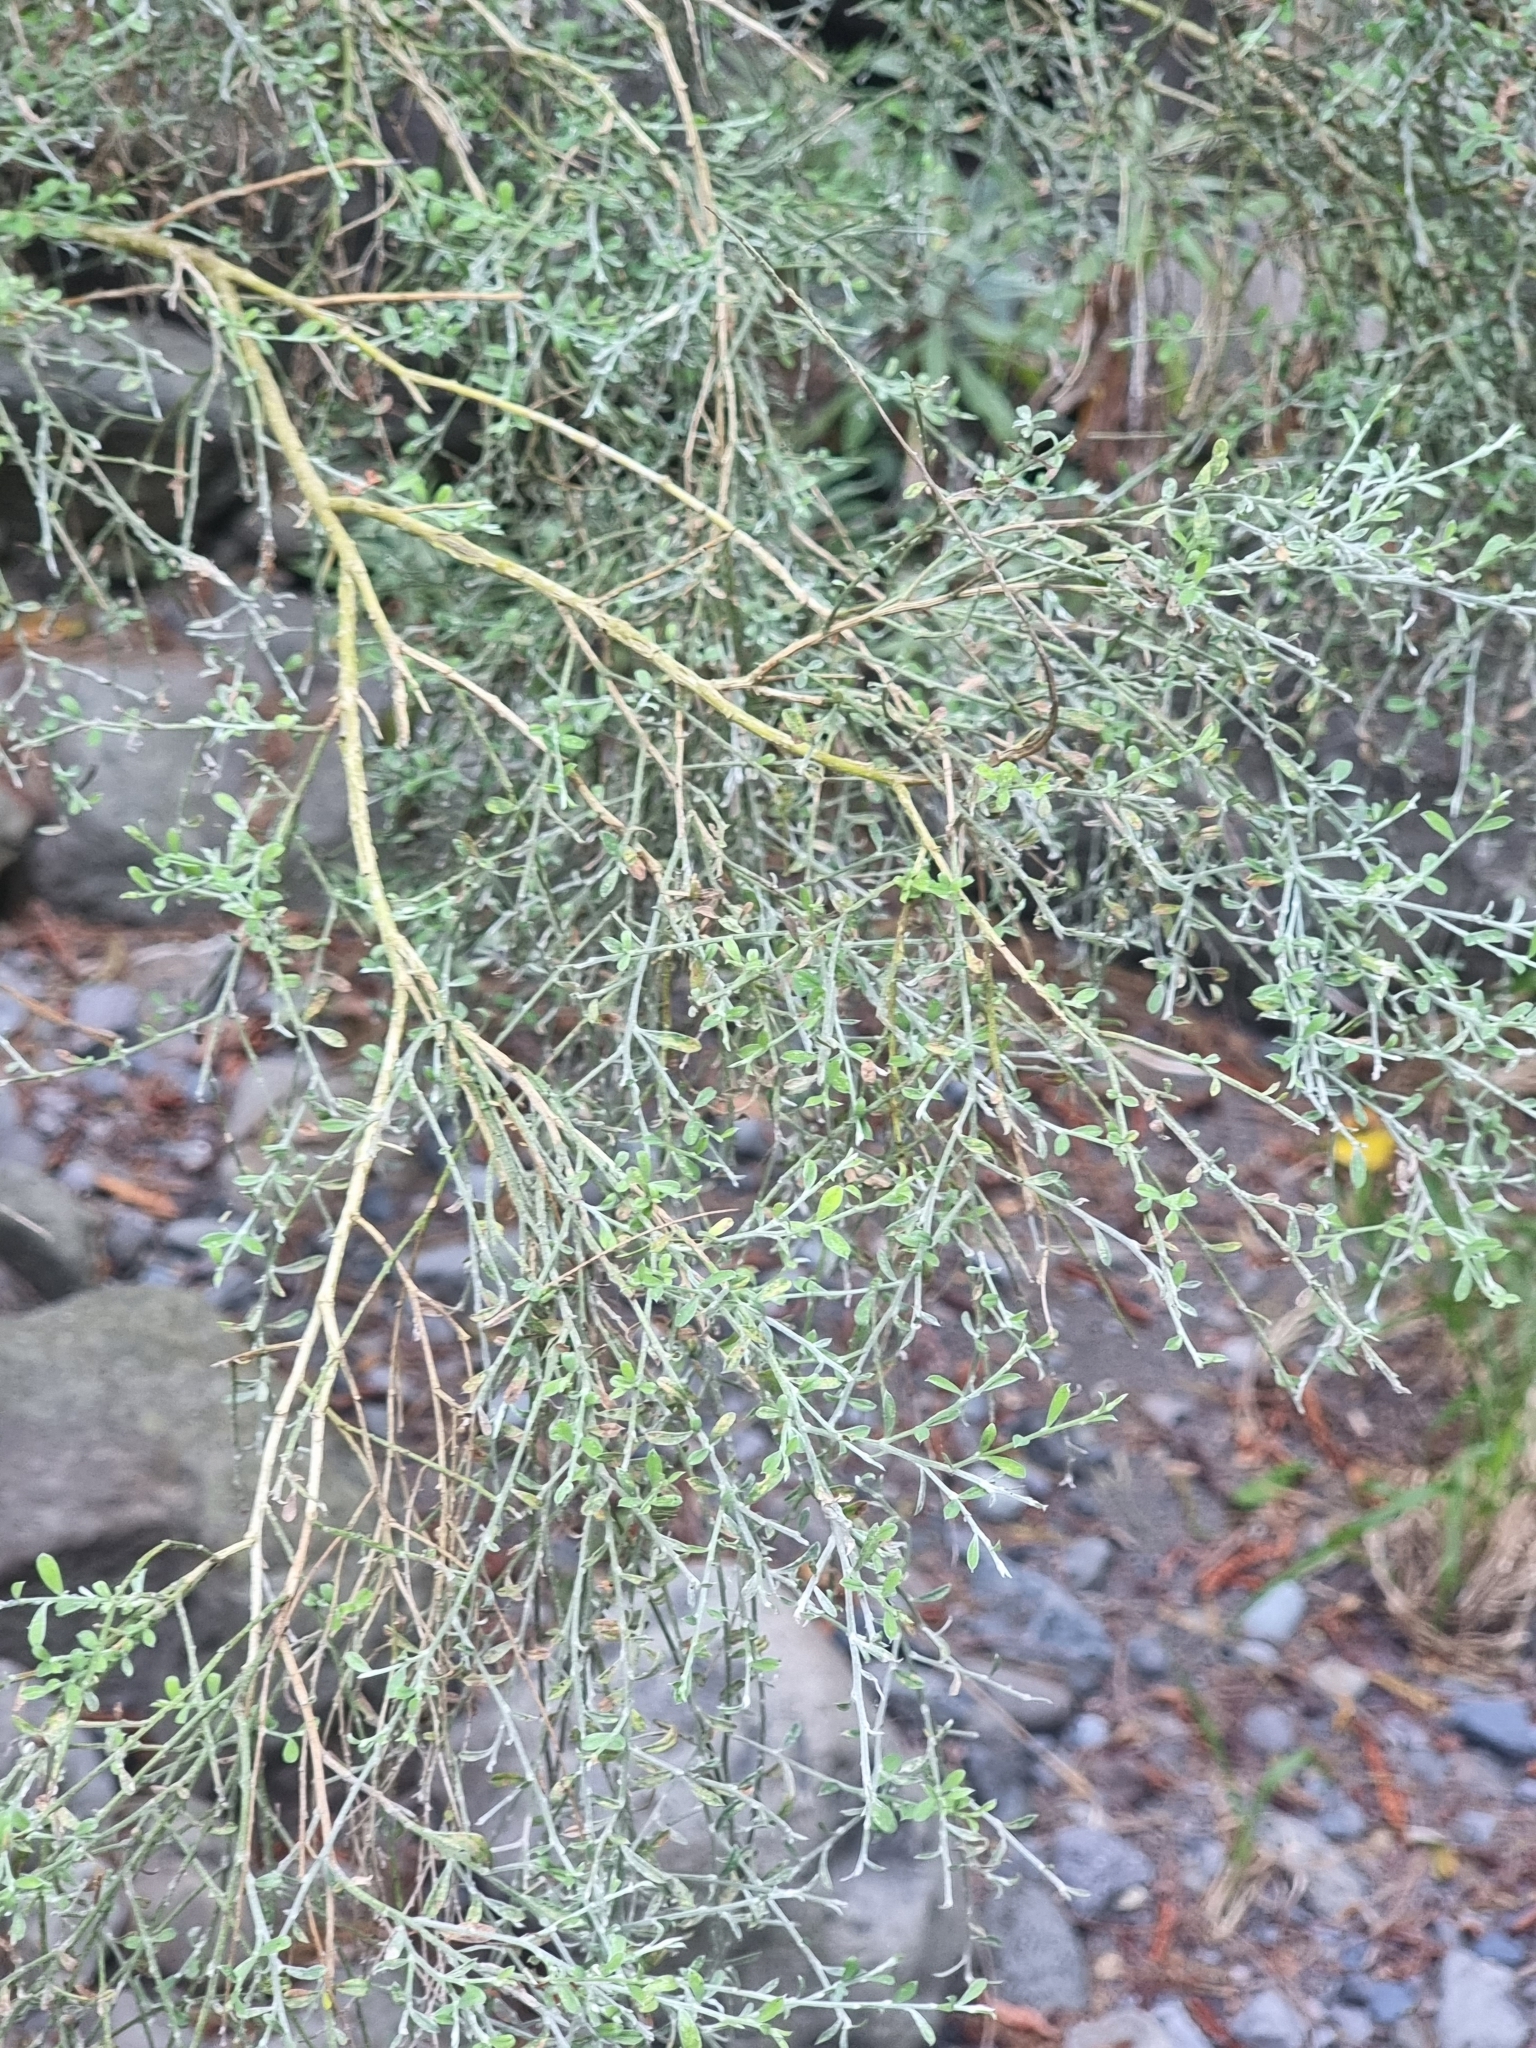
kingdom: Plantae
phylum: Tracheophyta
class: Magnoliopsida
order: Fabales
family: Fabaceae
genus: Genista
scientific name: Genista tenera
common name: Madeira broom
